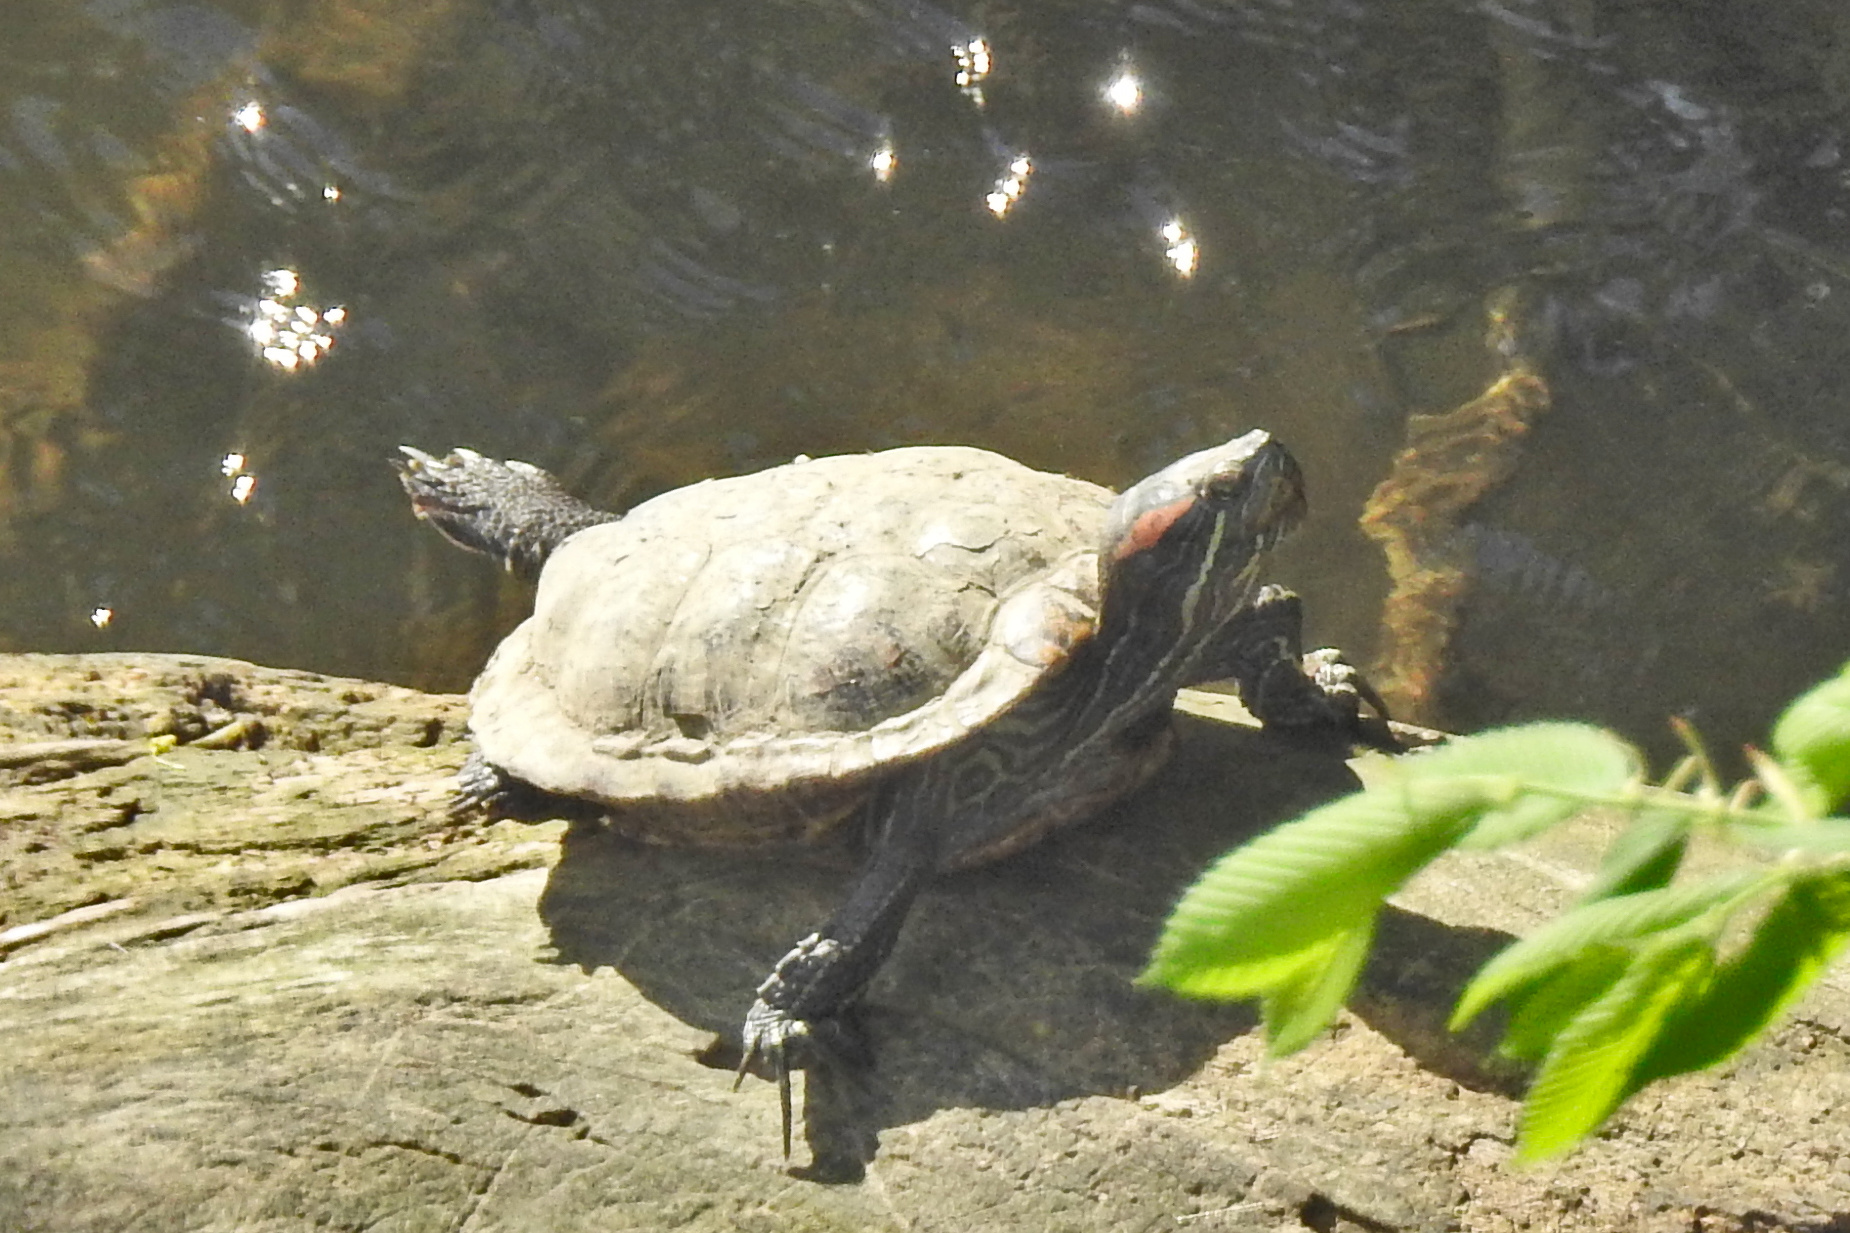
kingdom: Animalia
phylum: Chordata
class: Testudines
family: Emydidae
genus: Trachemys
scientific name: Trachemys scripta
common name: Slider
